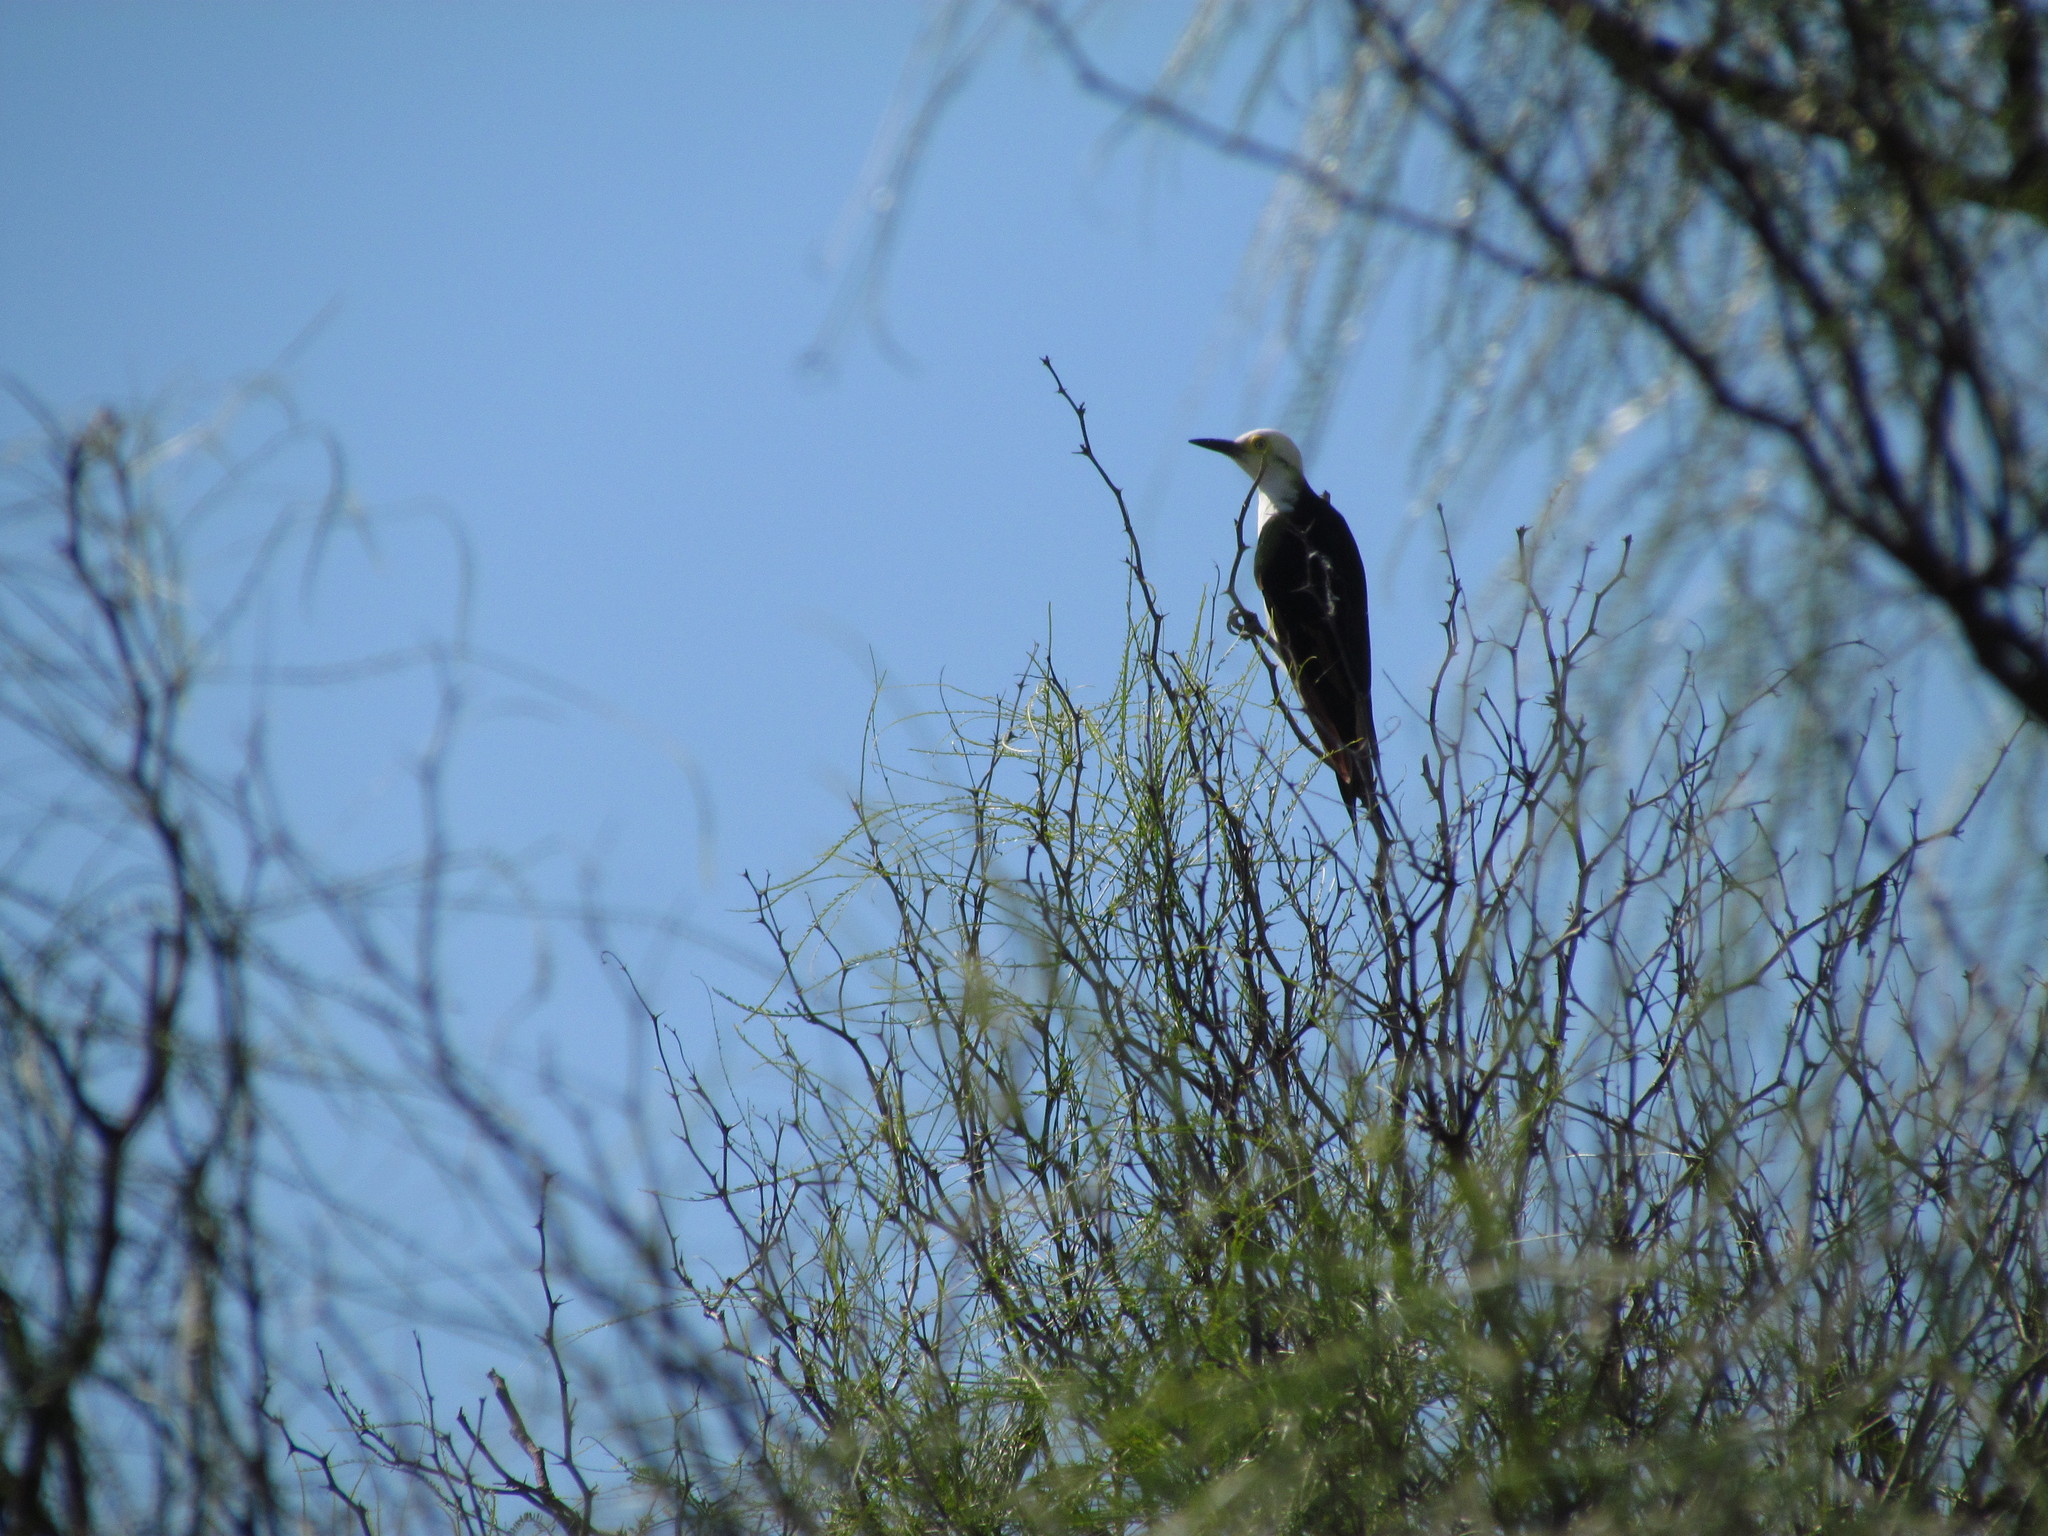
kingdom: Animalia
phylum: Chordata
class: Aves
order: Piciformes
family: Picidae
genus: Melanerpes
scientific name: Melanerpes candidus
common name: White woodpecker
